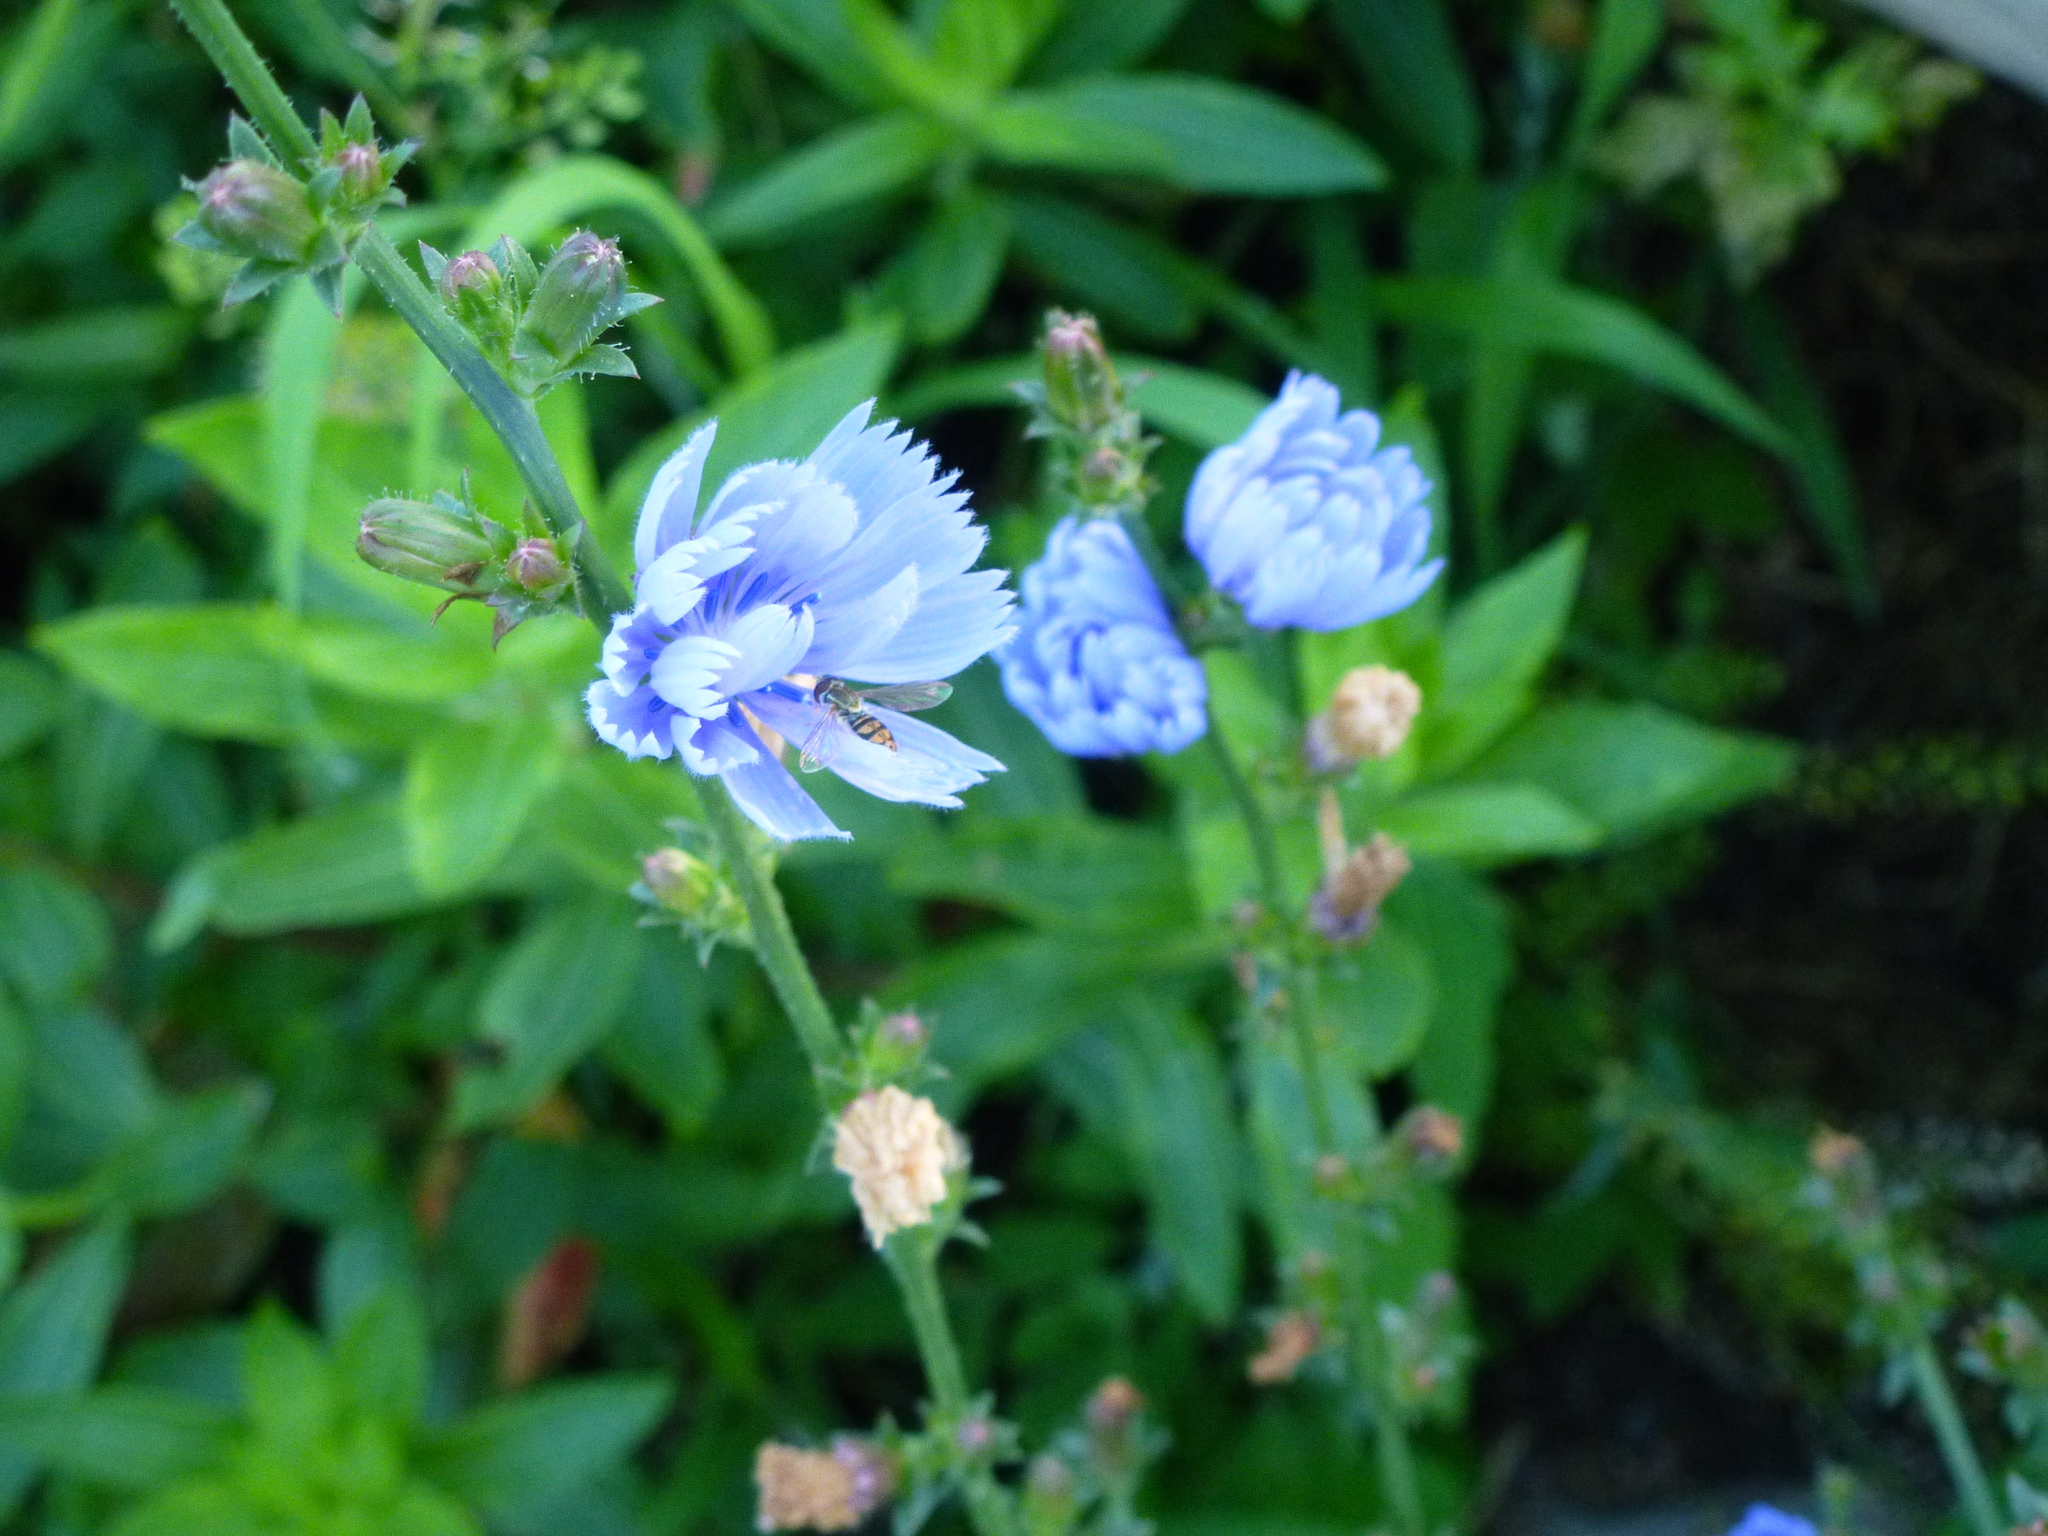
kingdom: Animalia
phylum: Arthropoda
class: Insecta
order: Diptera
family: Syrphidae
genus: Toxomerus
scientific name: Toxomerus marginatus
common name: Syrphid fly
